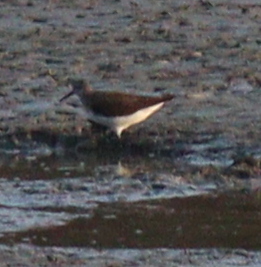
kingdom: Animalia
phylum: Chordata
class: Aves
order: Charadriiformes
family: Scolopacidae
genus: Tringa
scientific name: Tringa ochropus
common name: Green sandpiper
